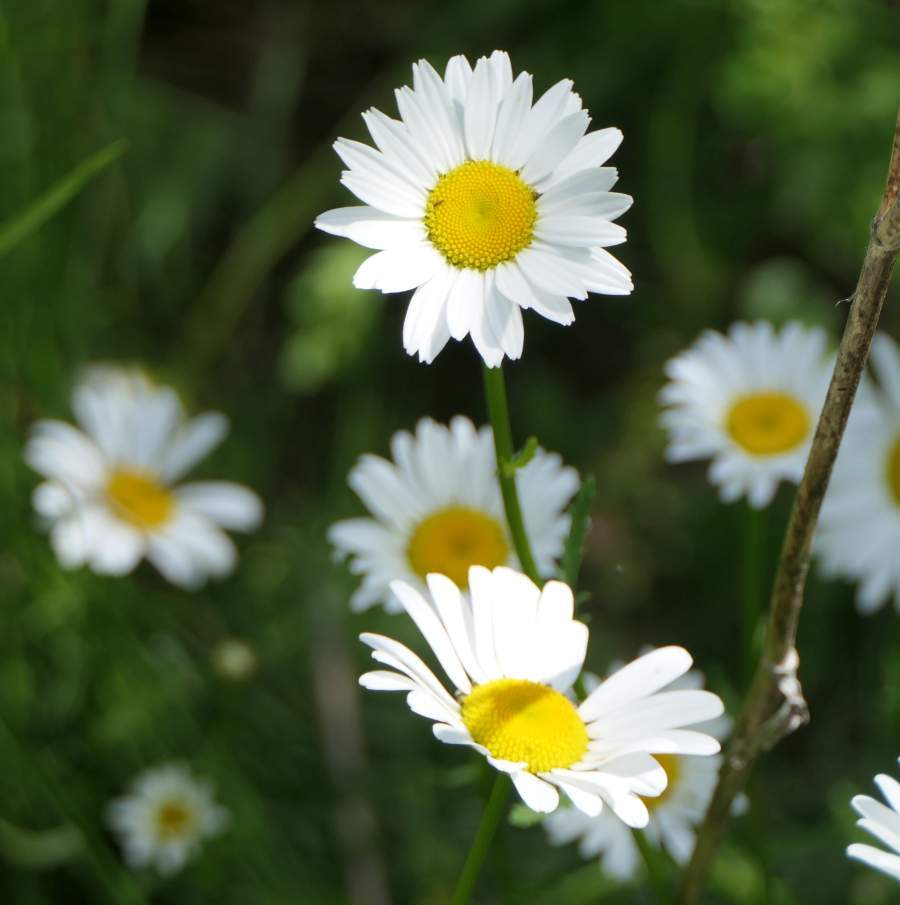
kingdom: Plantae
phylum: Tracheophyta
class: Magnoliopsida
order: Asterales
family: Asteraceae
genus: Leucanthemum
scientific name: Leucanthemum vulgare
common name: Oxeye daisy
